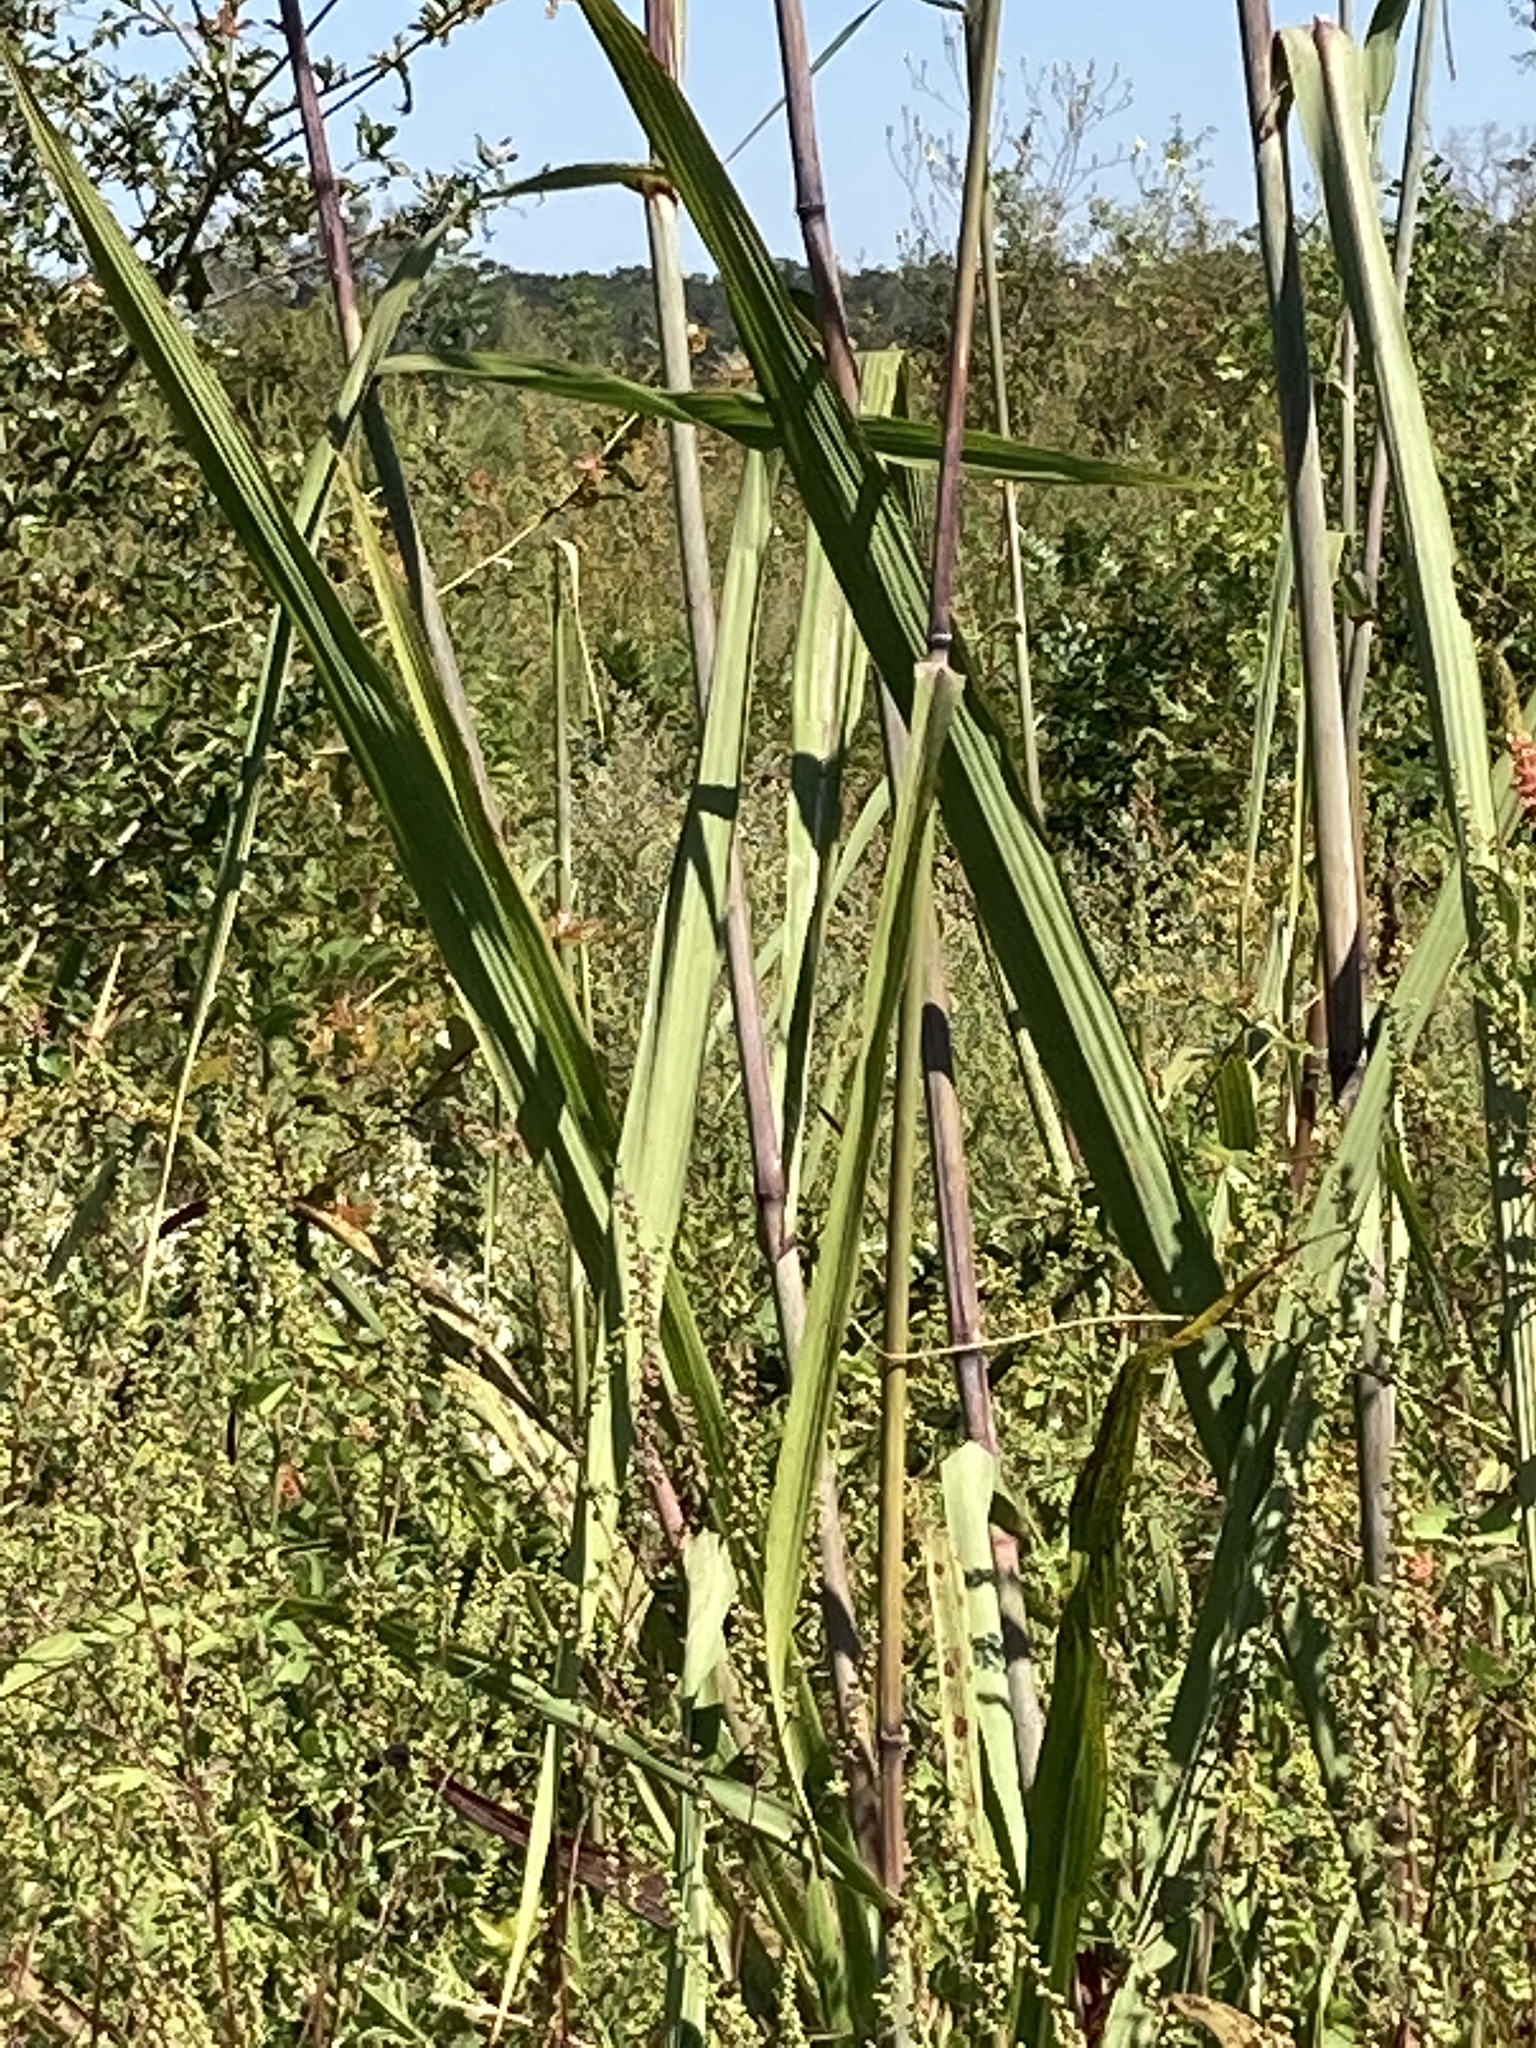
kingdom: Plantae
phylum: Tracheophyta
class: Liliopsida
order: Poales
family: Poaceae
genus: Erianthus
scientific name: Erianthus giganteus
